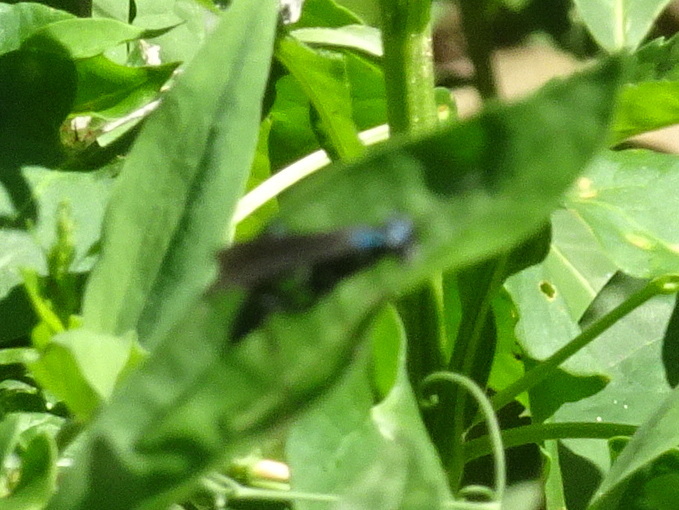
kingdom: Animalia
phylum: Arthropoda
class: Insecta
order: Hymenoptera
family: Sphecidae
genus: Chalybion
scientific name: Chalybion californicum
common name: Mud dauber
